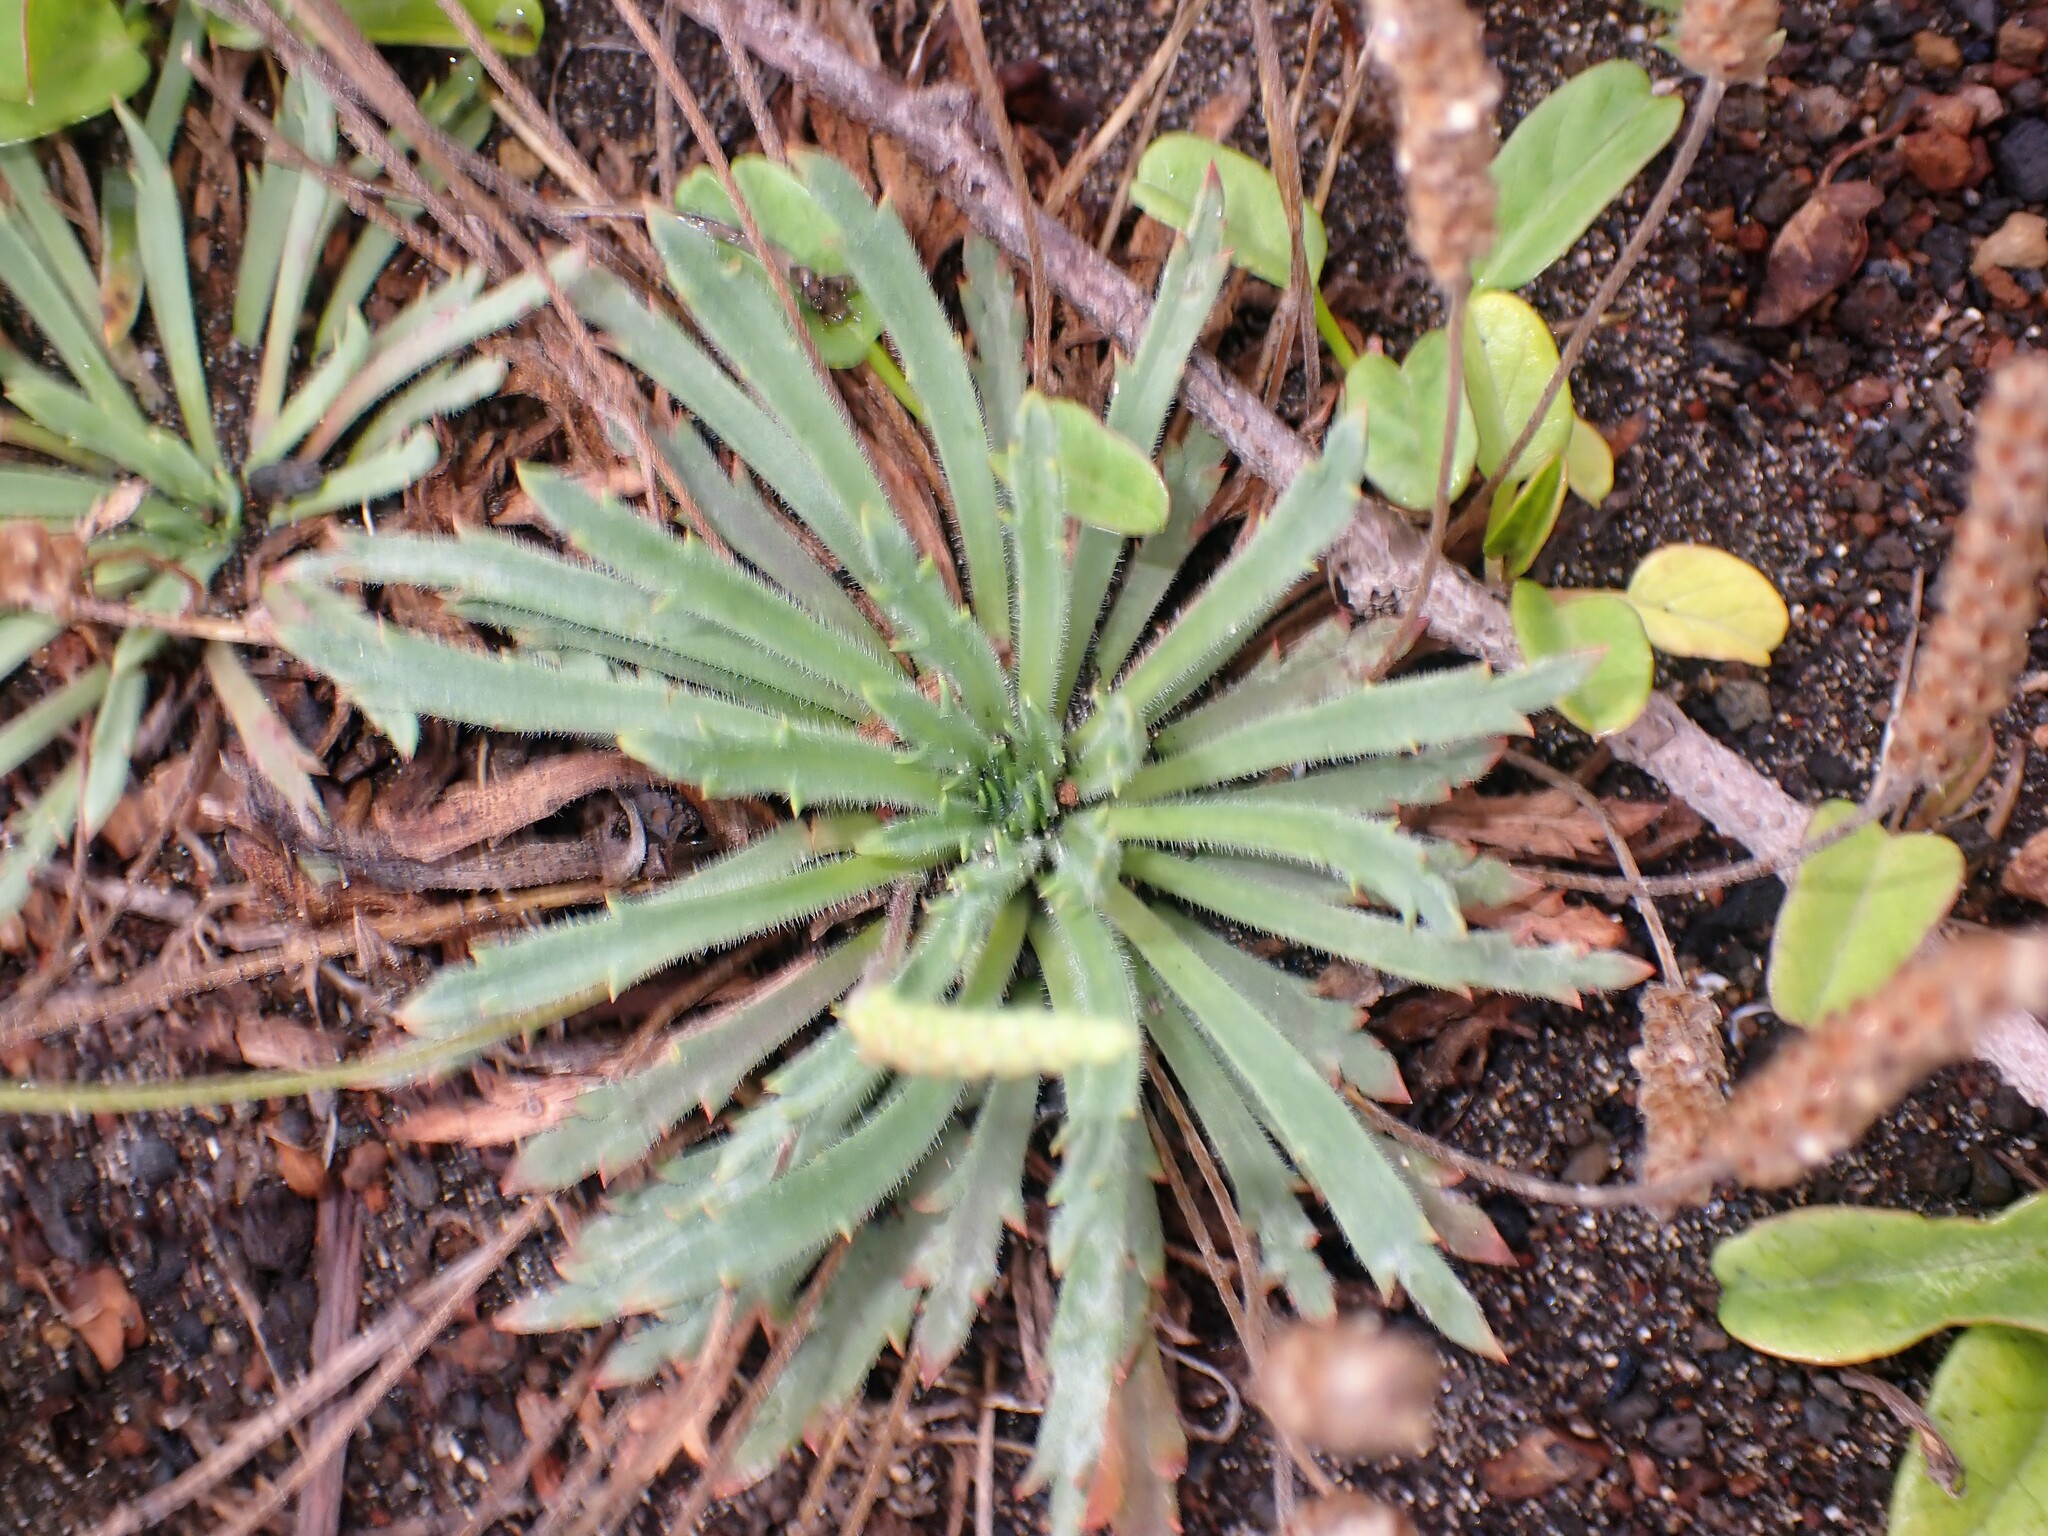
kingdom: Plantae
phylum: Tracheophyta
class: Magnoliopsida
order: Lamiales
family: Plantaginaceae
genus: Plantago
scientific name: Plantago coronopus
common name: Buck's-horn plantain
